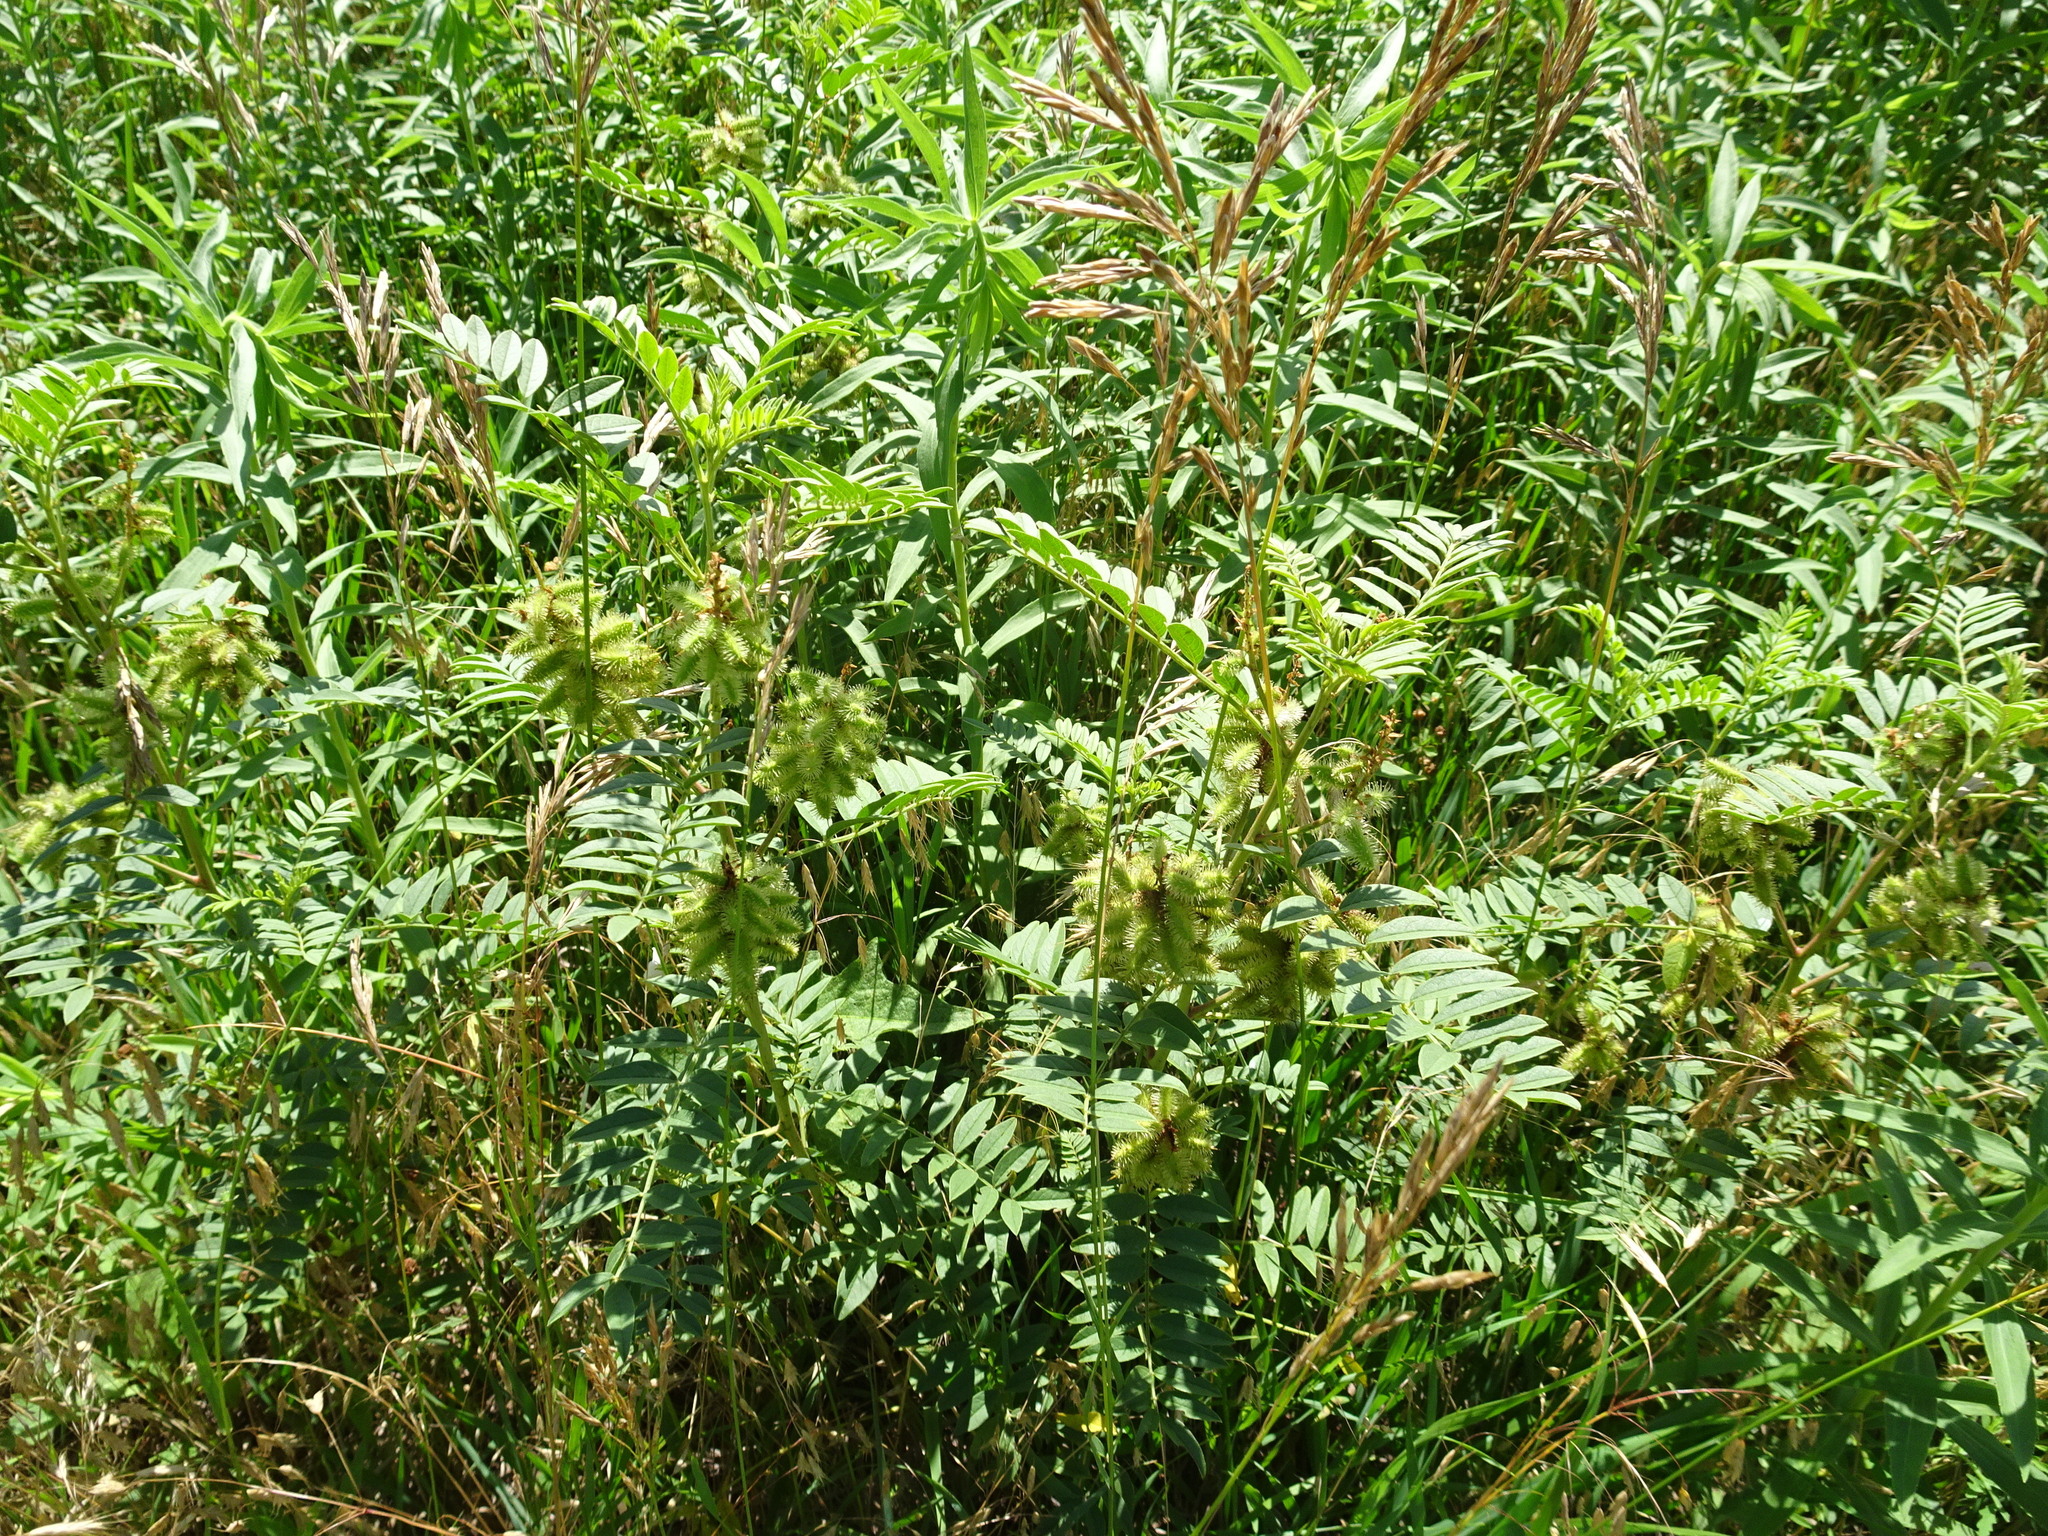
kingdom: Plantae
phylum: Tracheophyta
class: Magnoliopsida
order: Fabales
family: Fabaceae
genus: Glycyrrhiza
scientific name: Glycyrrhiza lepidota
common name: American liquorice
